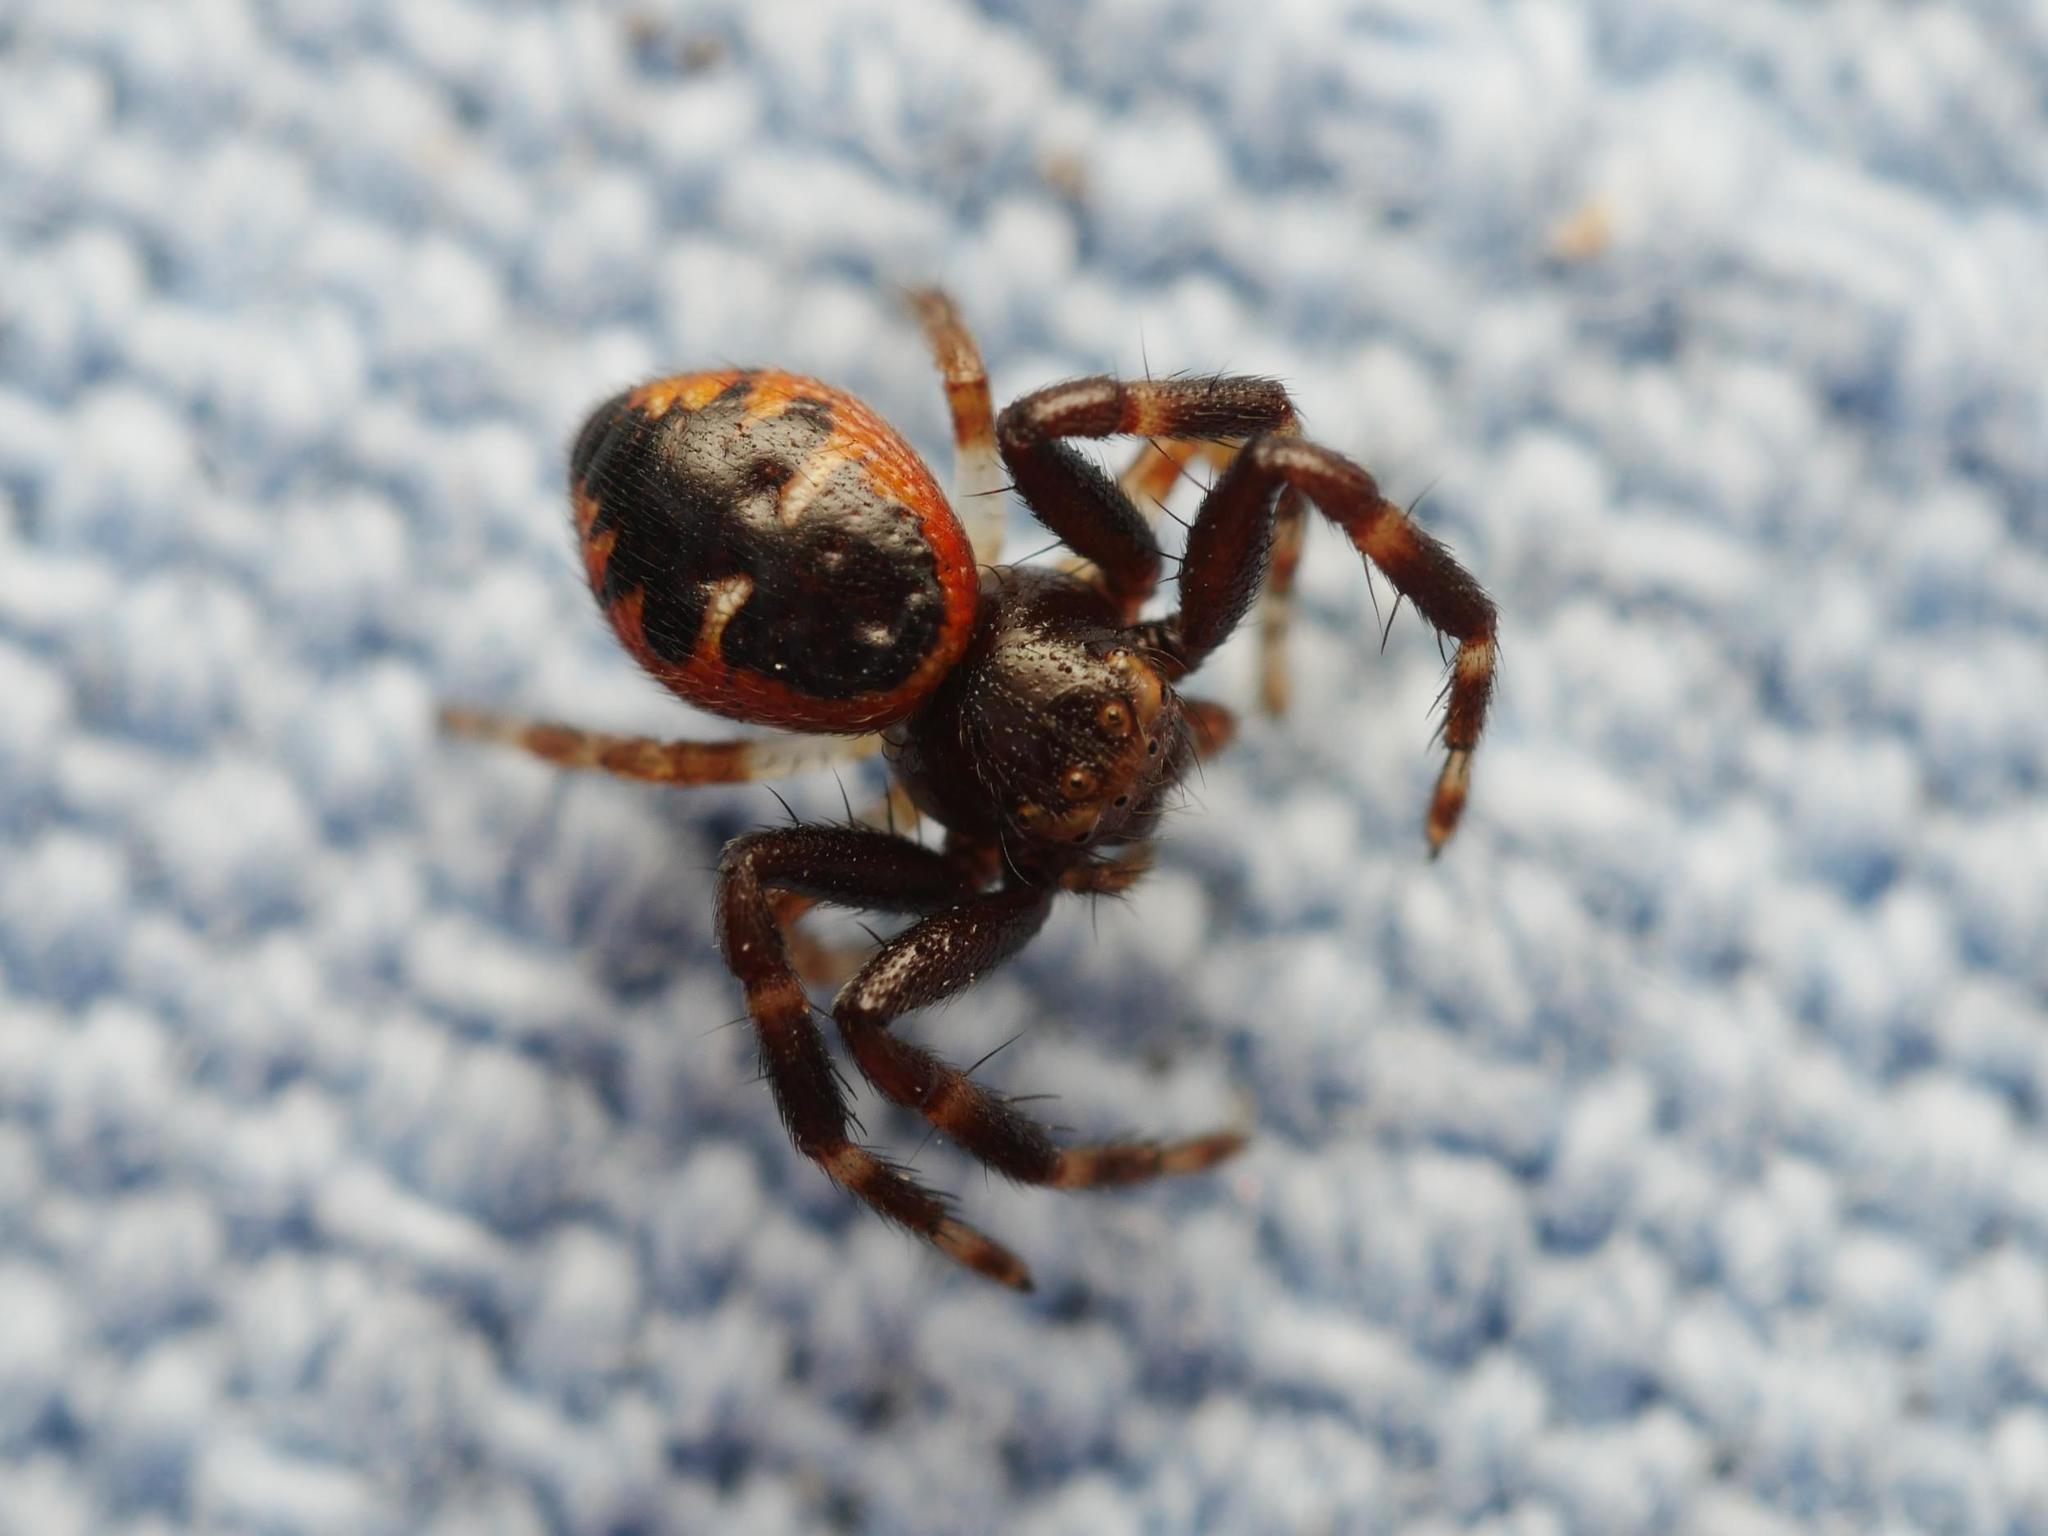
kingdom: Animalia
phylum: Arthropoda
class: Arachnida
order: Araneae
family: Thomisidae
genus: Synema
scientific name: Synema globosum
